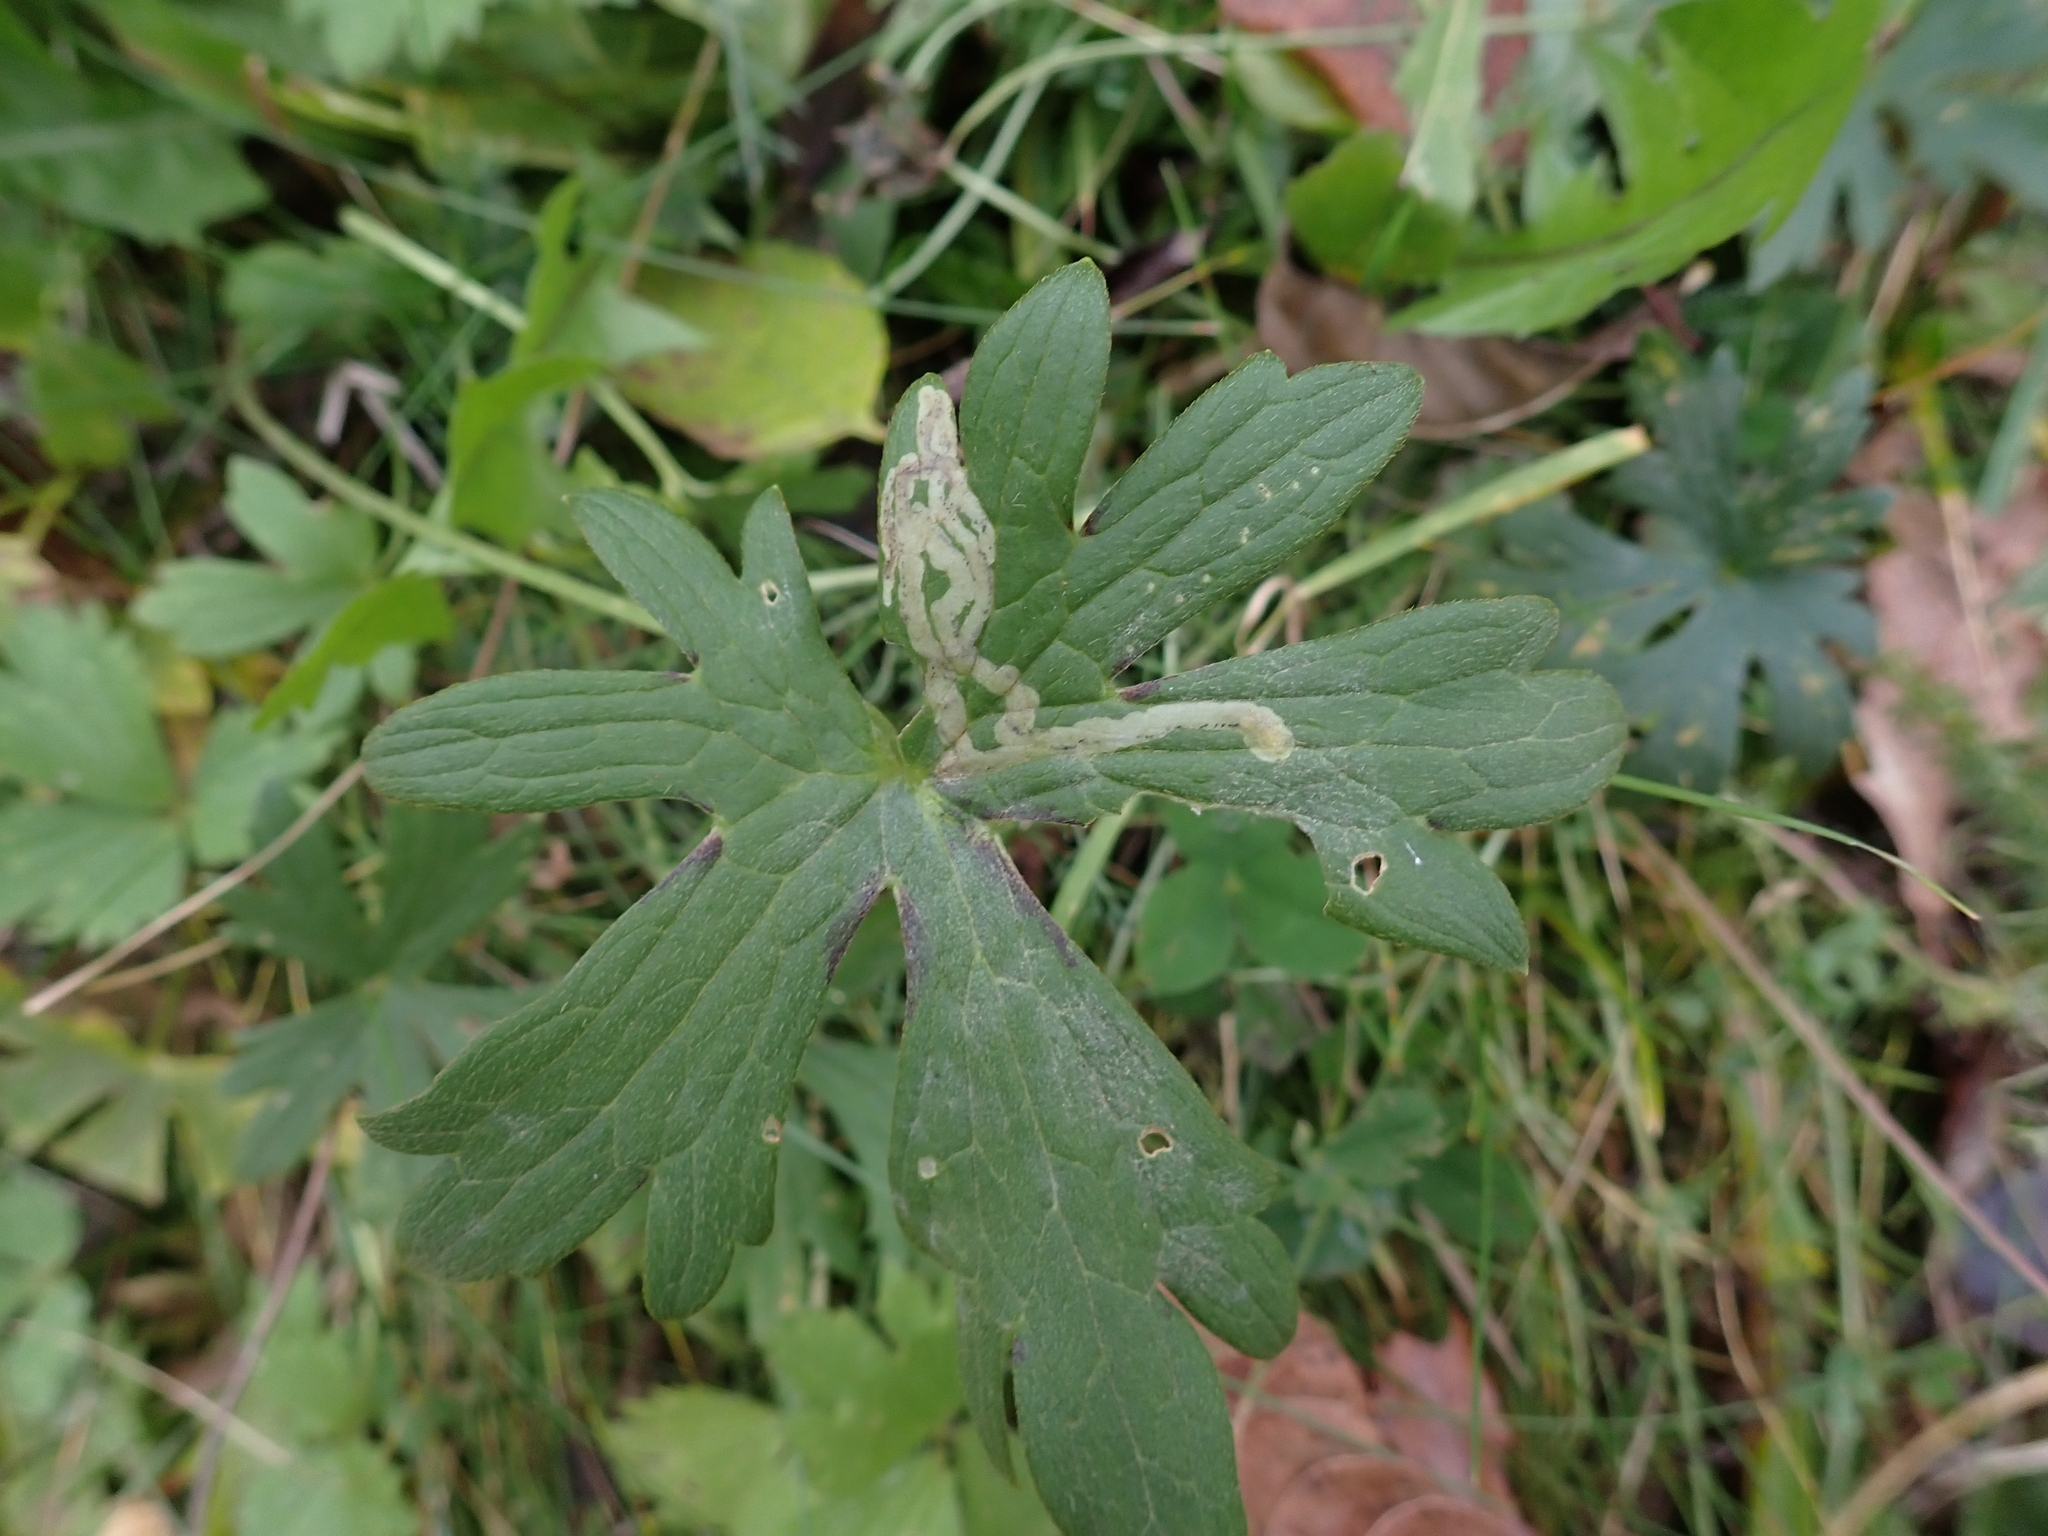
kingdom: Animalia
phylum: Arthropoda
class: Insecta
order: Diptera
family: Agromyzidae
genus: Phytomyza
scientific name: Phytomyza ranunculi
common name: Leaf-miner fly
